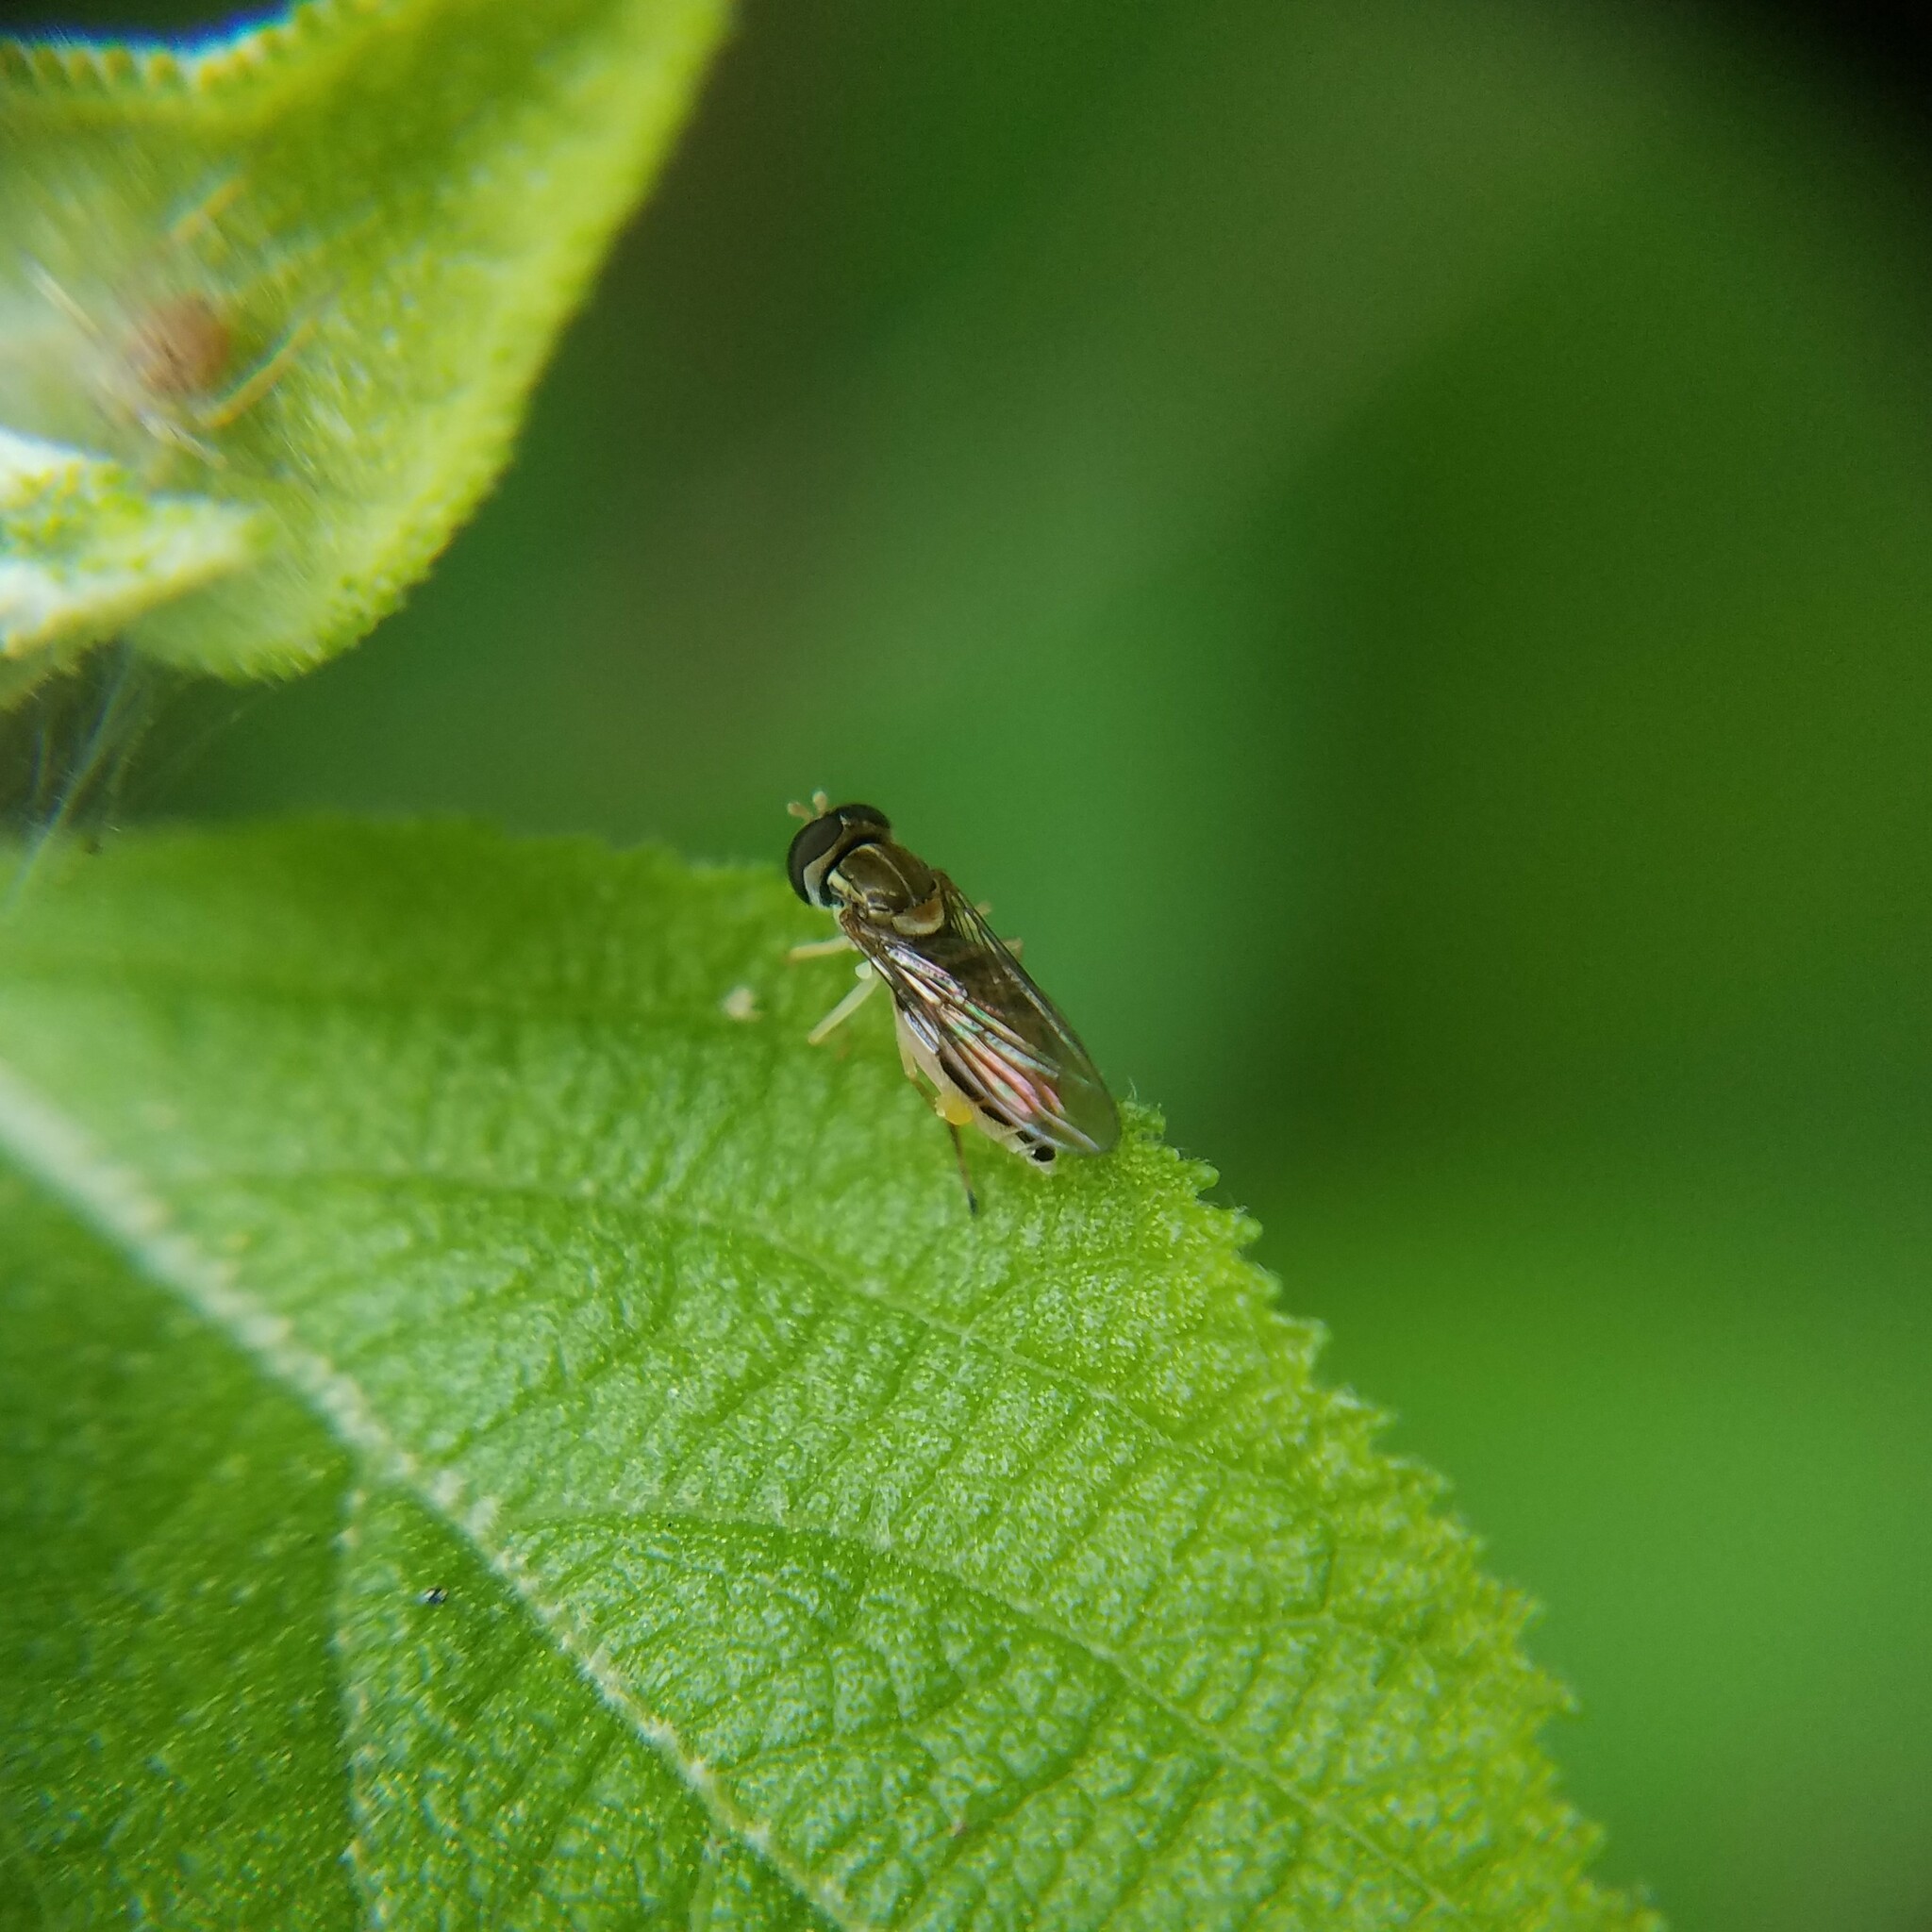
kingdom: Animalia
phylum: Arthropoda
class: Insecta
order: Diptera
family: Syrphidae
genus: Toxomerus
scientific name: Toxomerus marginatus
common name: Syrphid fly
